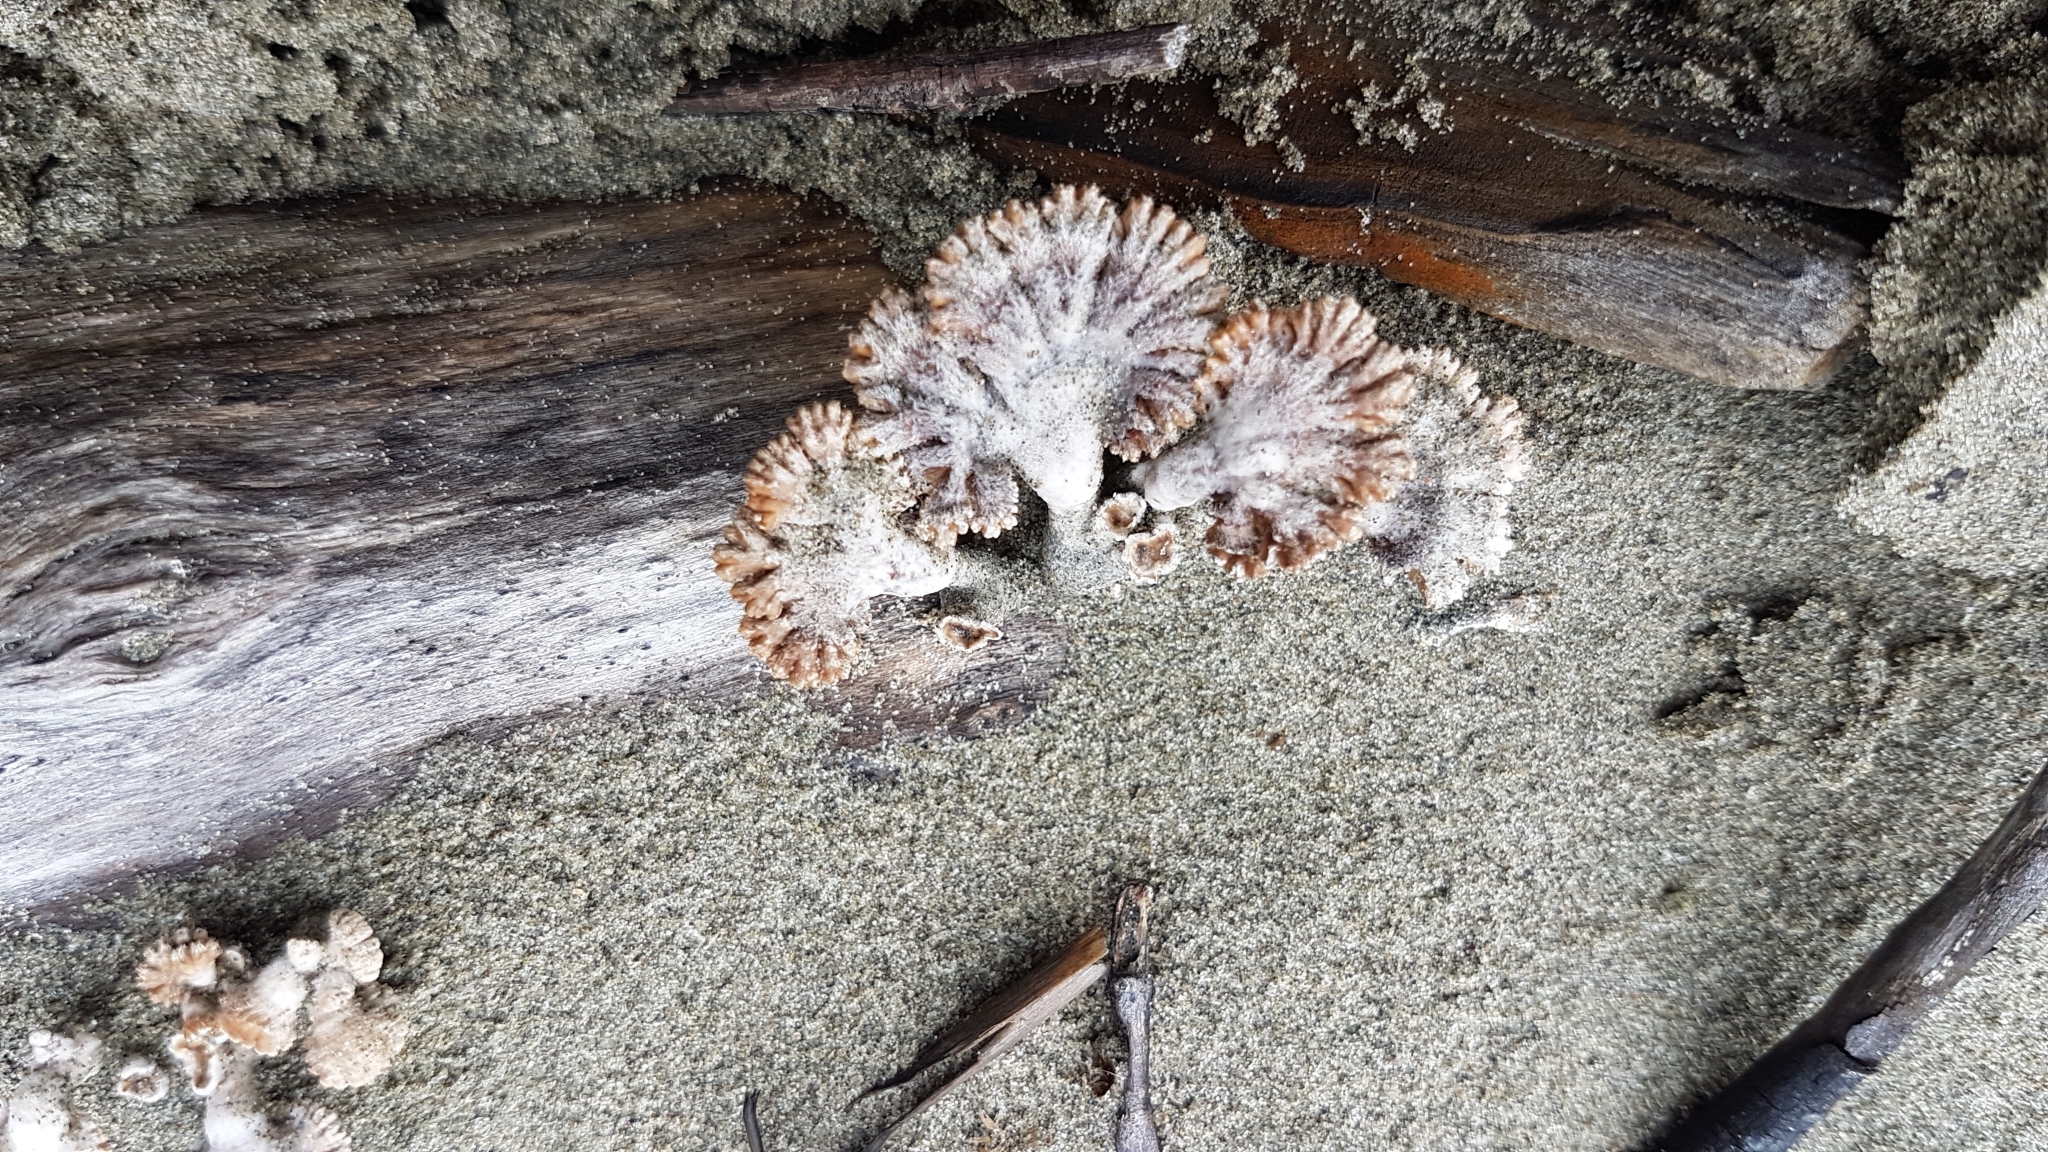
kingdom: Fungi
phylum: Basidiomycota
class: Agaricomycetes
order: Agaricales
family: Schizophyllaceae
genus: Schizophyllum
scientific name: Schizophyllum commune
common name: Common porecrust
